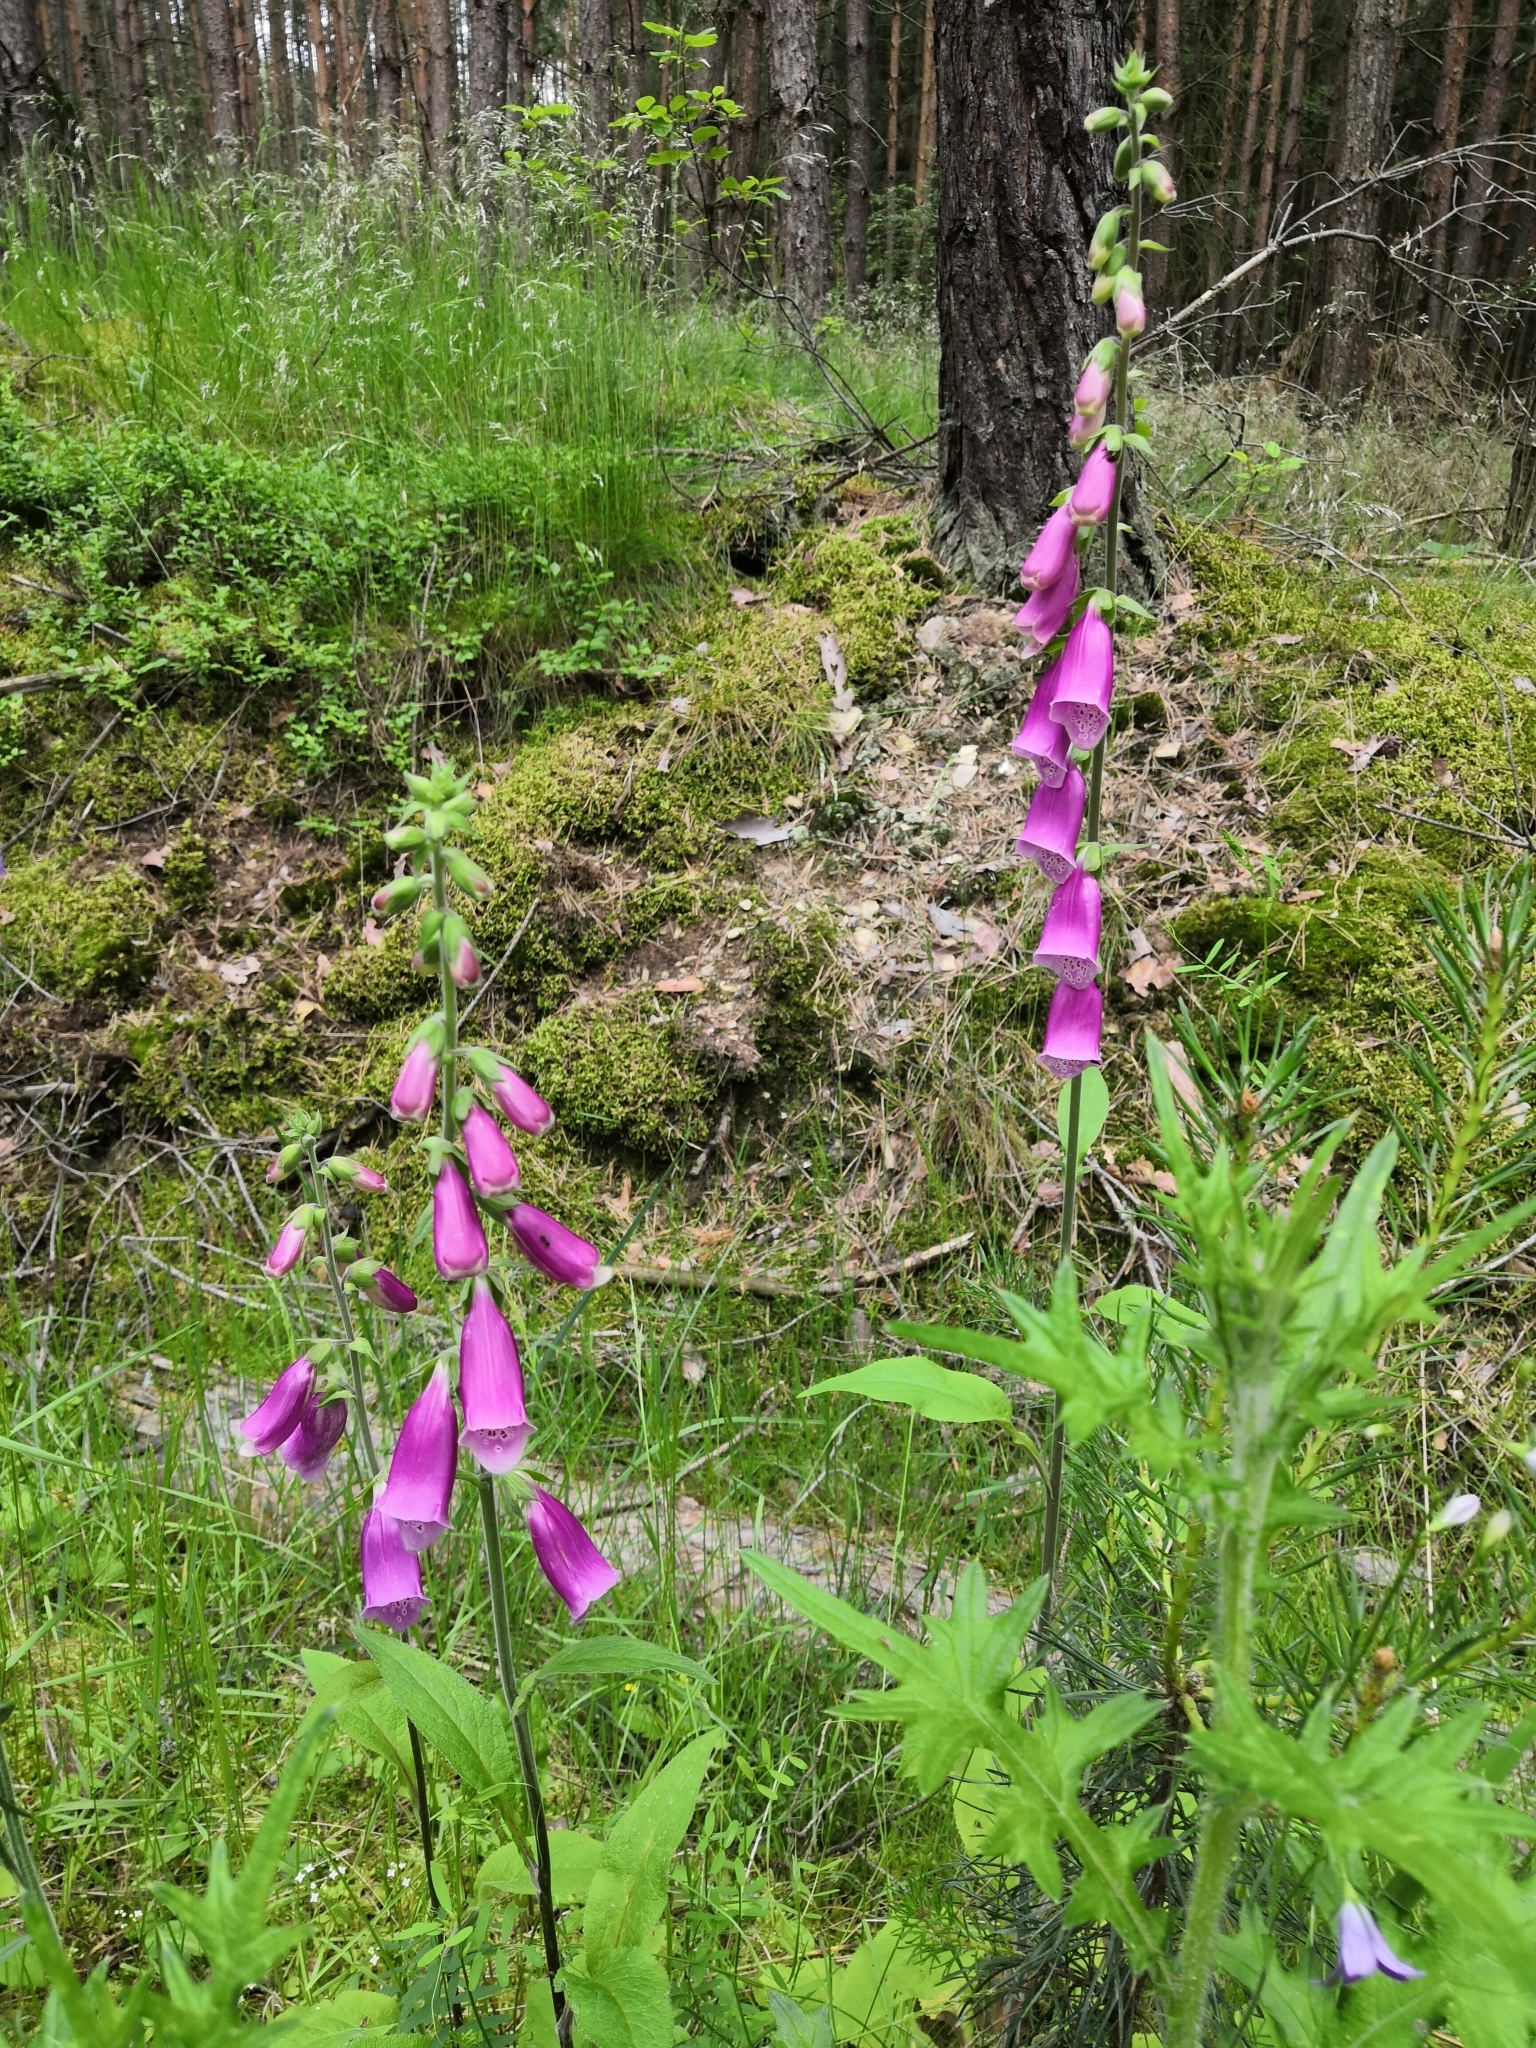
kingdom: Plantae
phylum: Tracheophyta
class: Magnoliopsida
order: Lamiales
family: Plantaginaceae
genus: Digitalis
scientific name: Digitalis purpurea
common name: Foxglove
